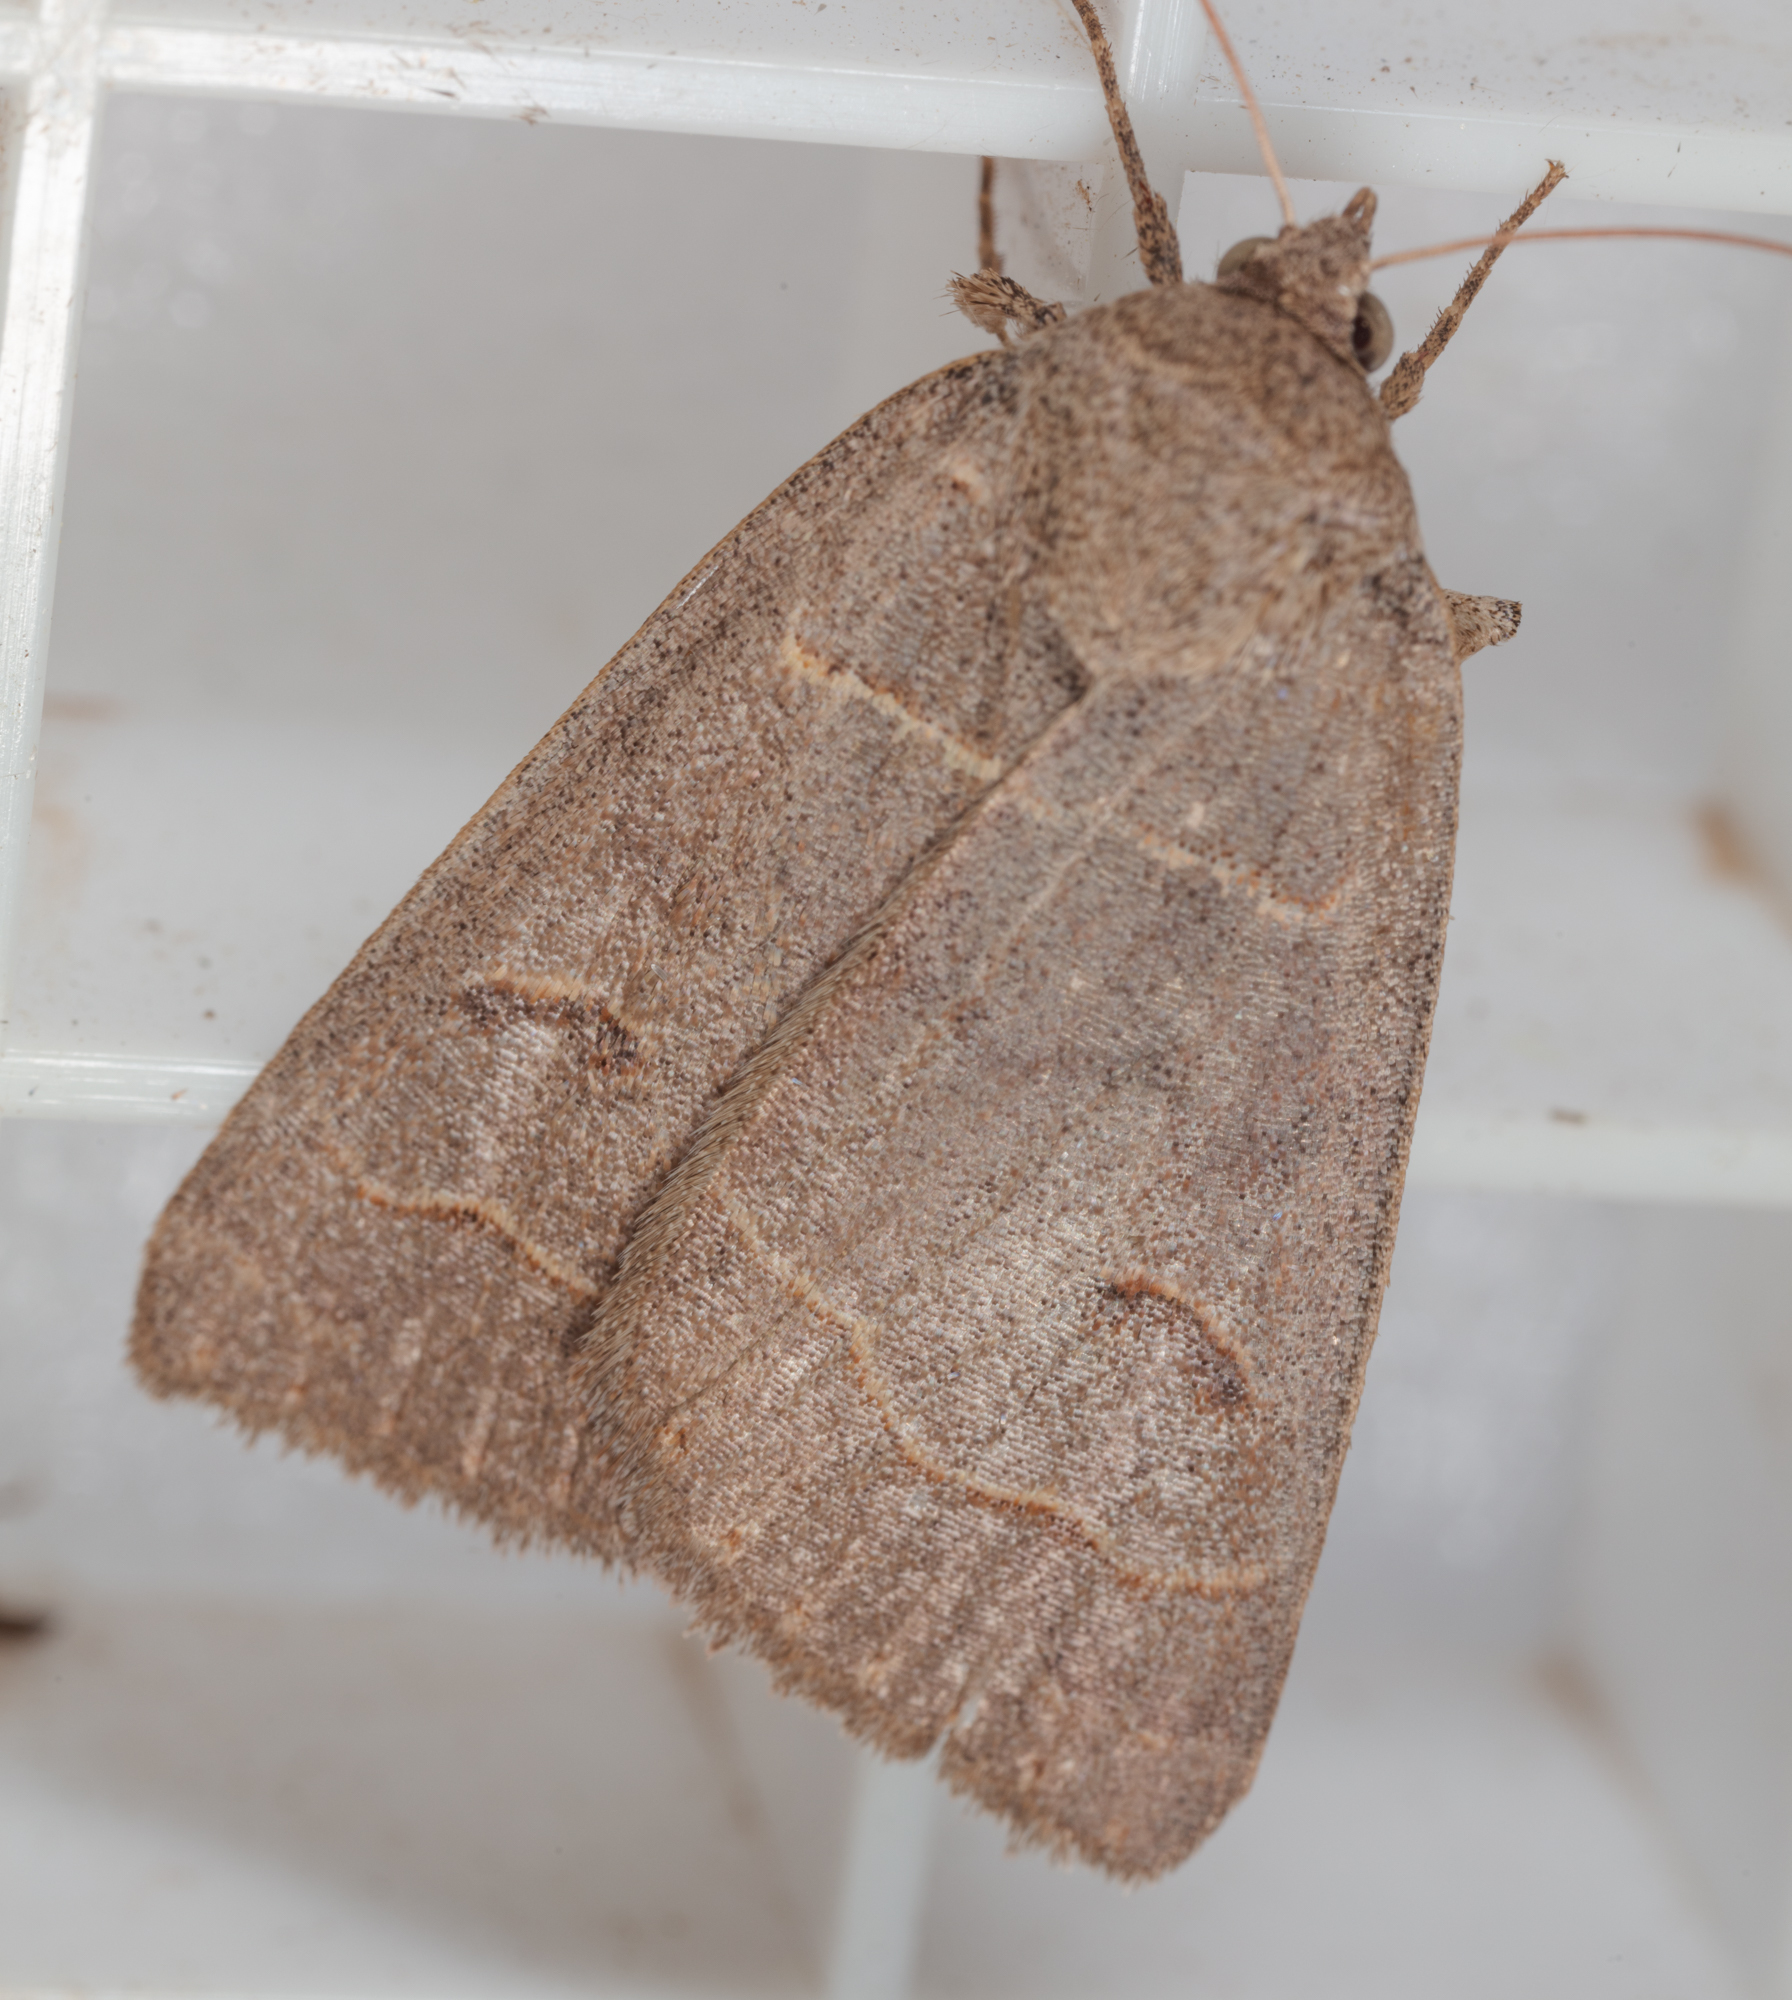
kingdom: Animalia
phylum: Arthropoda
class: Insecta
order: Lepidoptera
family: Erebidae
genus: Phoberia
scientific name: Phoberia atomaris
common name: Common oak moth
